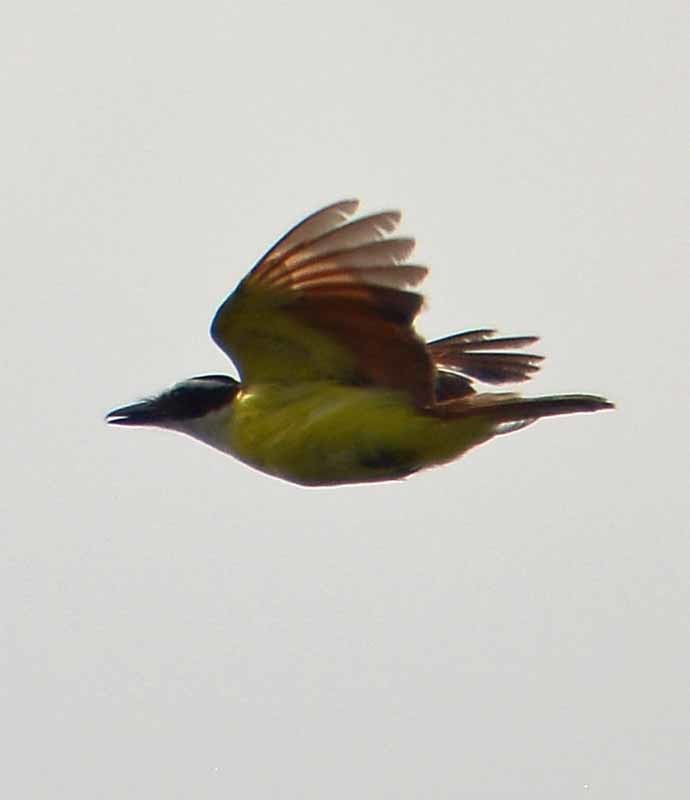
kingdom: Animalia
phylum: Chordata
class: Aves
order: Passeriformes
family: Tyrannidae
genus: Pitangus
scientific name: Pitangus sulphuratus
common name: Great kiskadee
